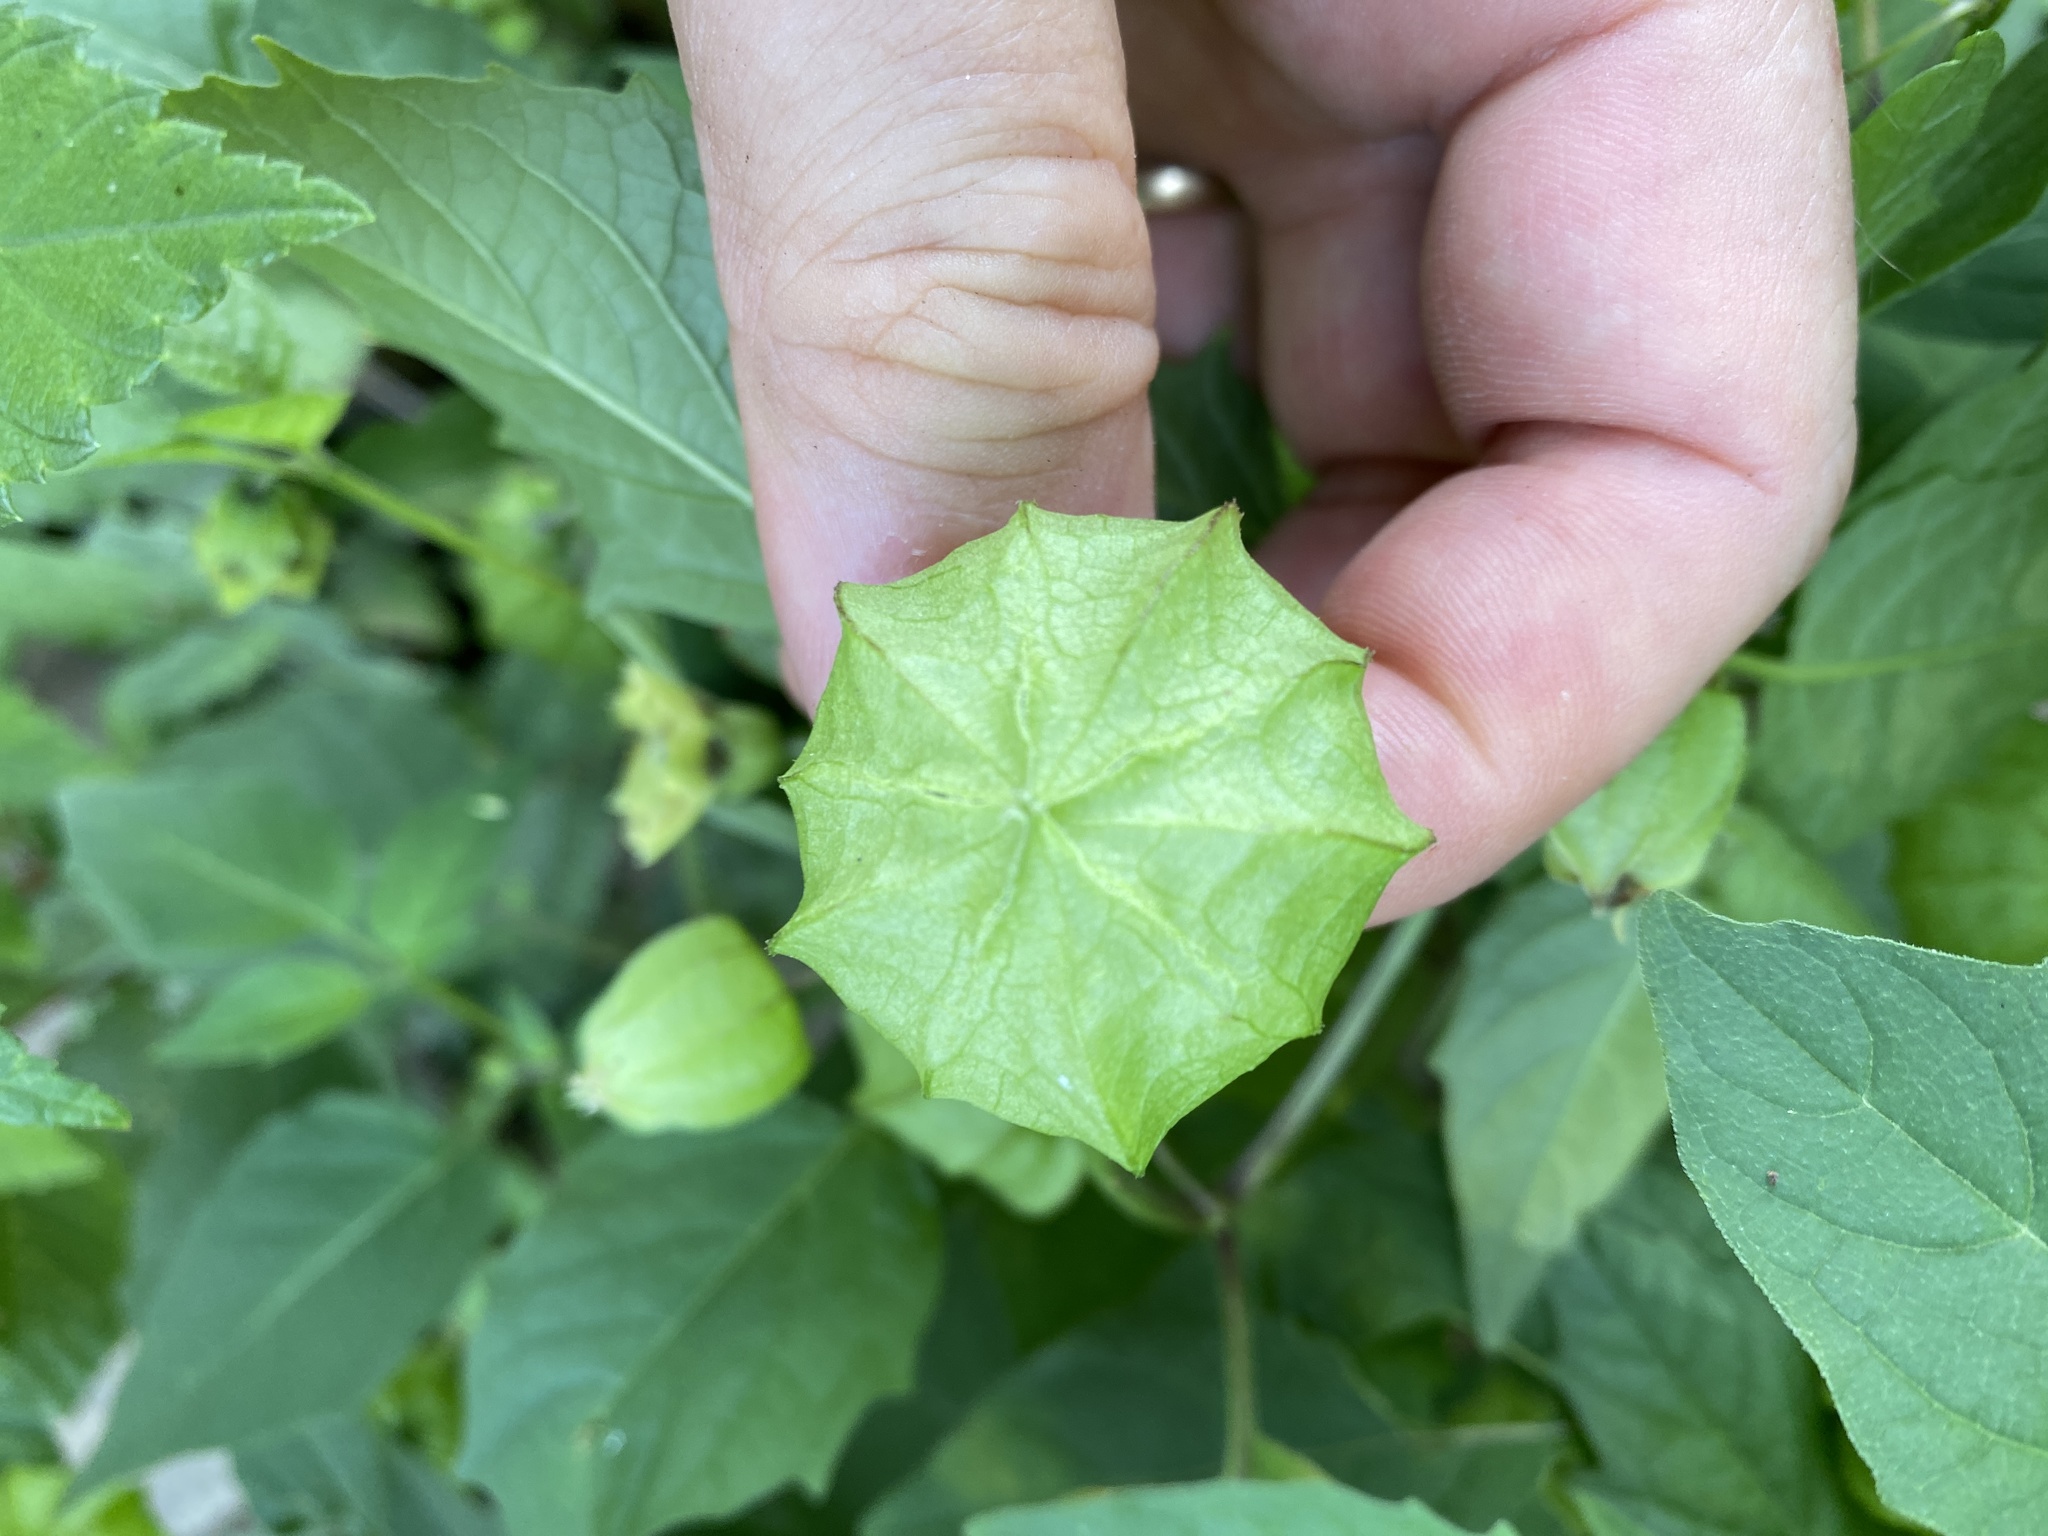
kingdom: Plantae
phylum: Tracheophyta
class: Magnoliopsida
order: Solanales
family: Solanaceae
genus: Physalis
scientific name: Physalis longifolia
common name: Common ground-cherry
